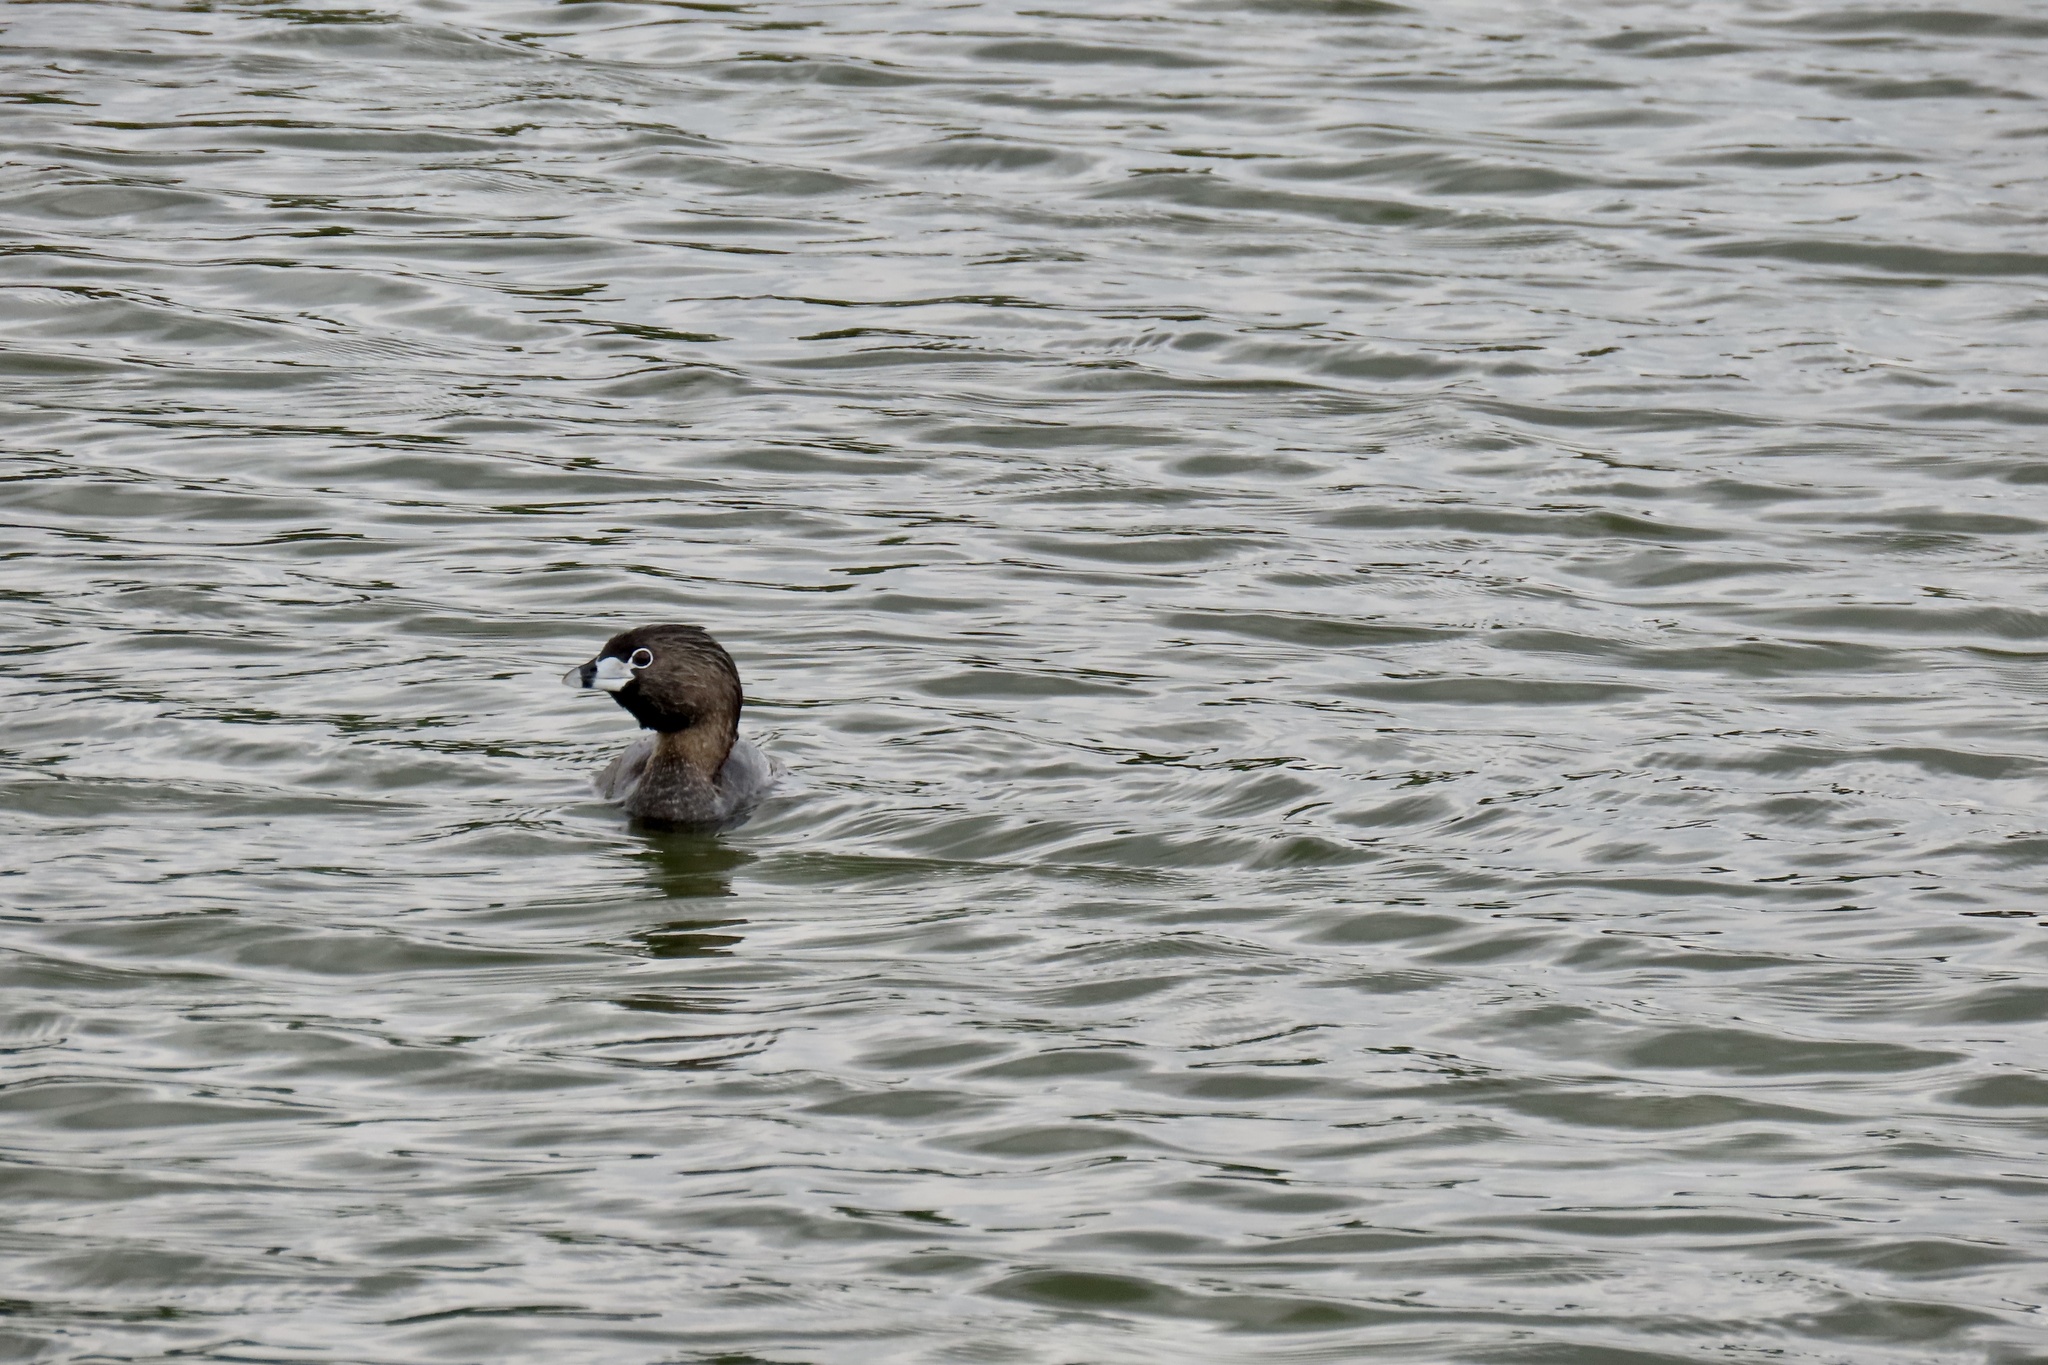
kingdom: Animalia
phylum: Chordata
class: Aves
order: Podicipediformes
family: Podicipedidae
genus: Podilymbus
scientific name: Podilymbus podiceps
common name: Pied-billed grebe
